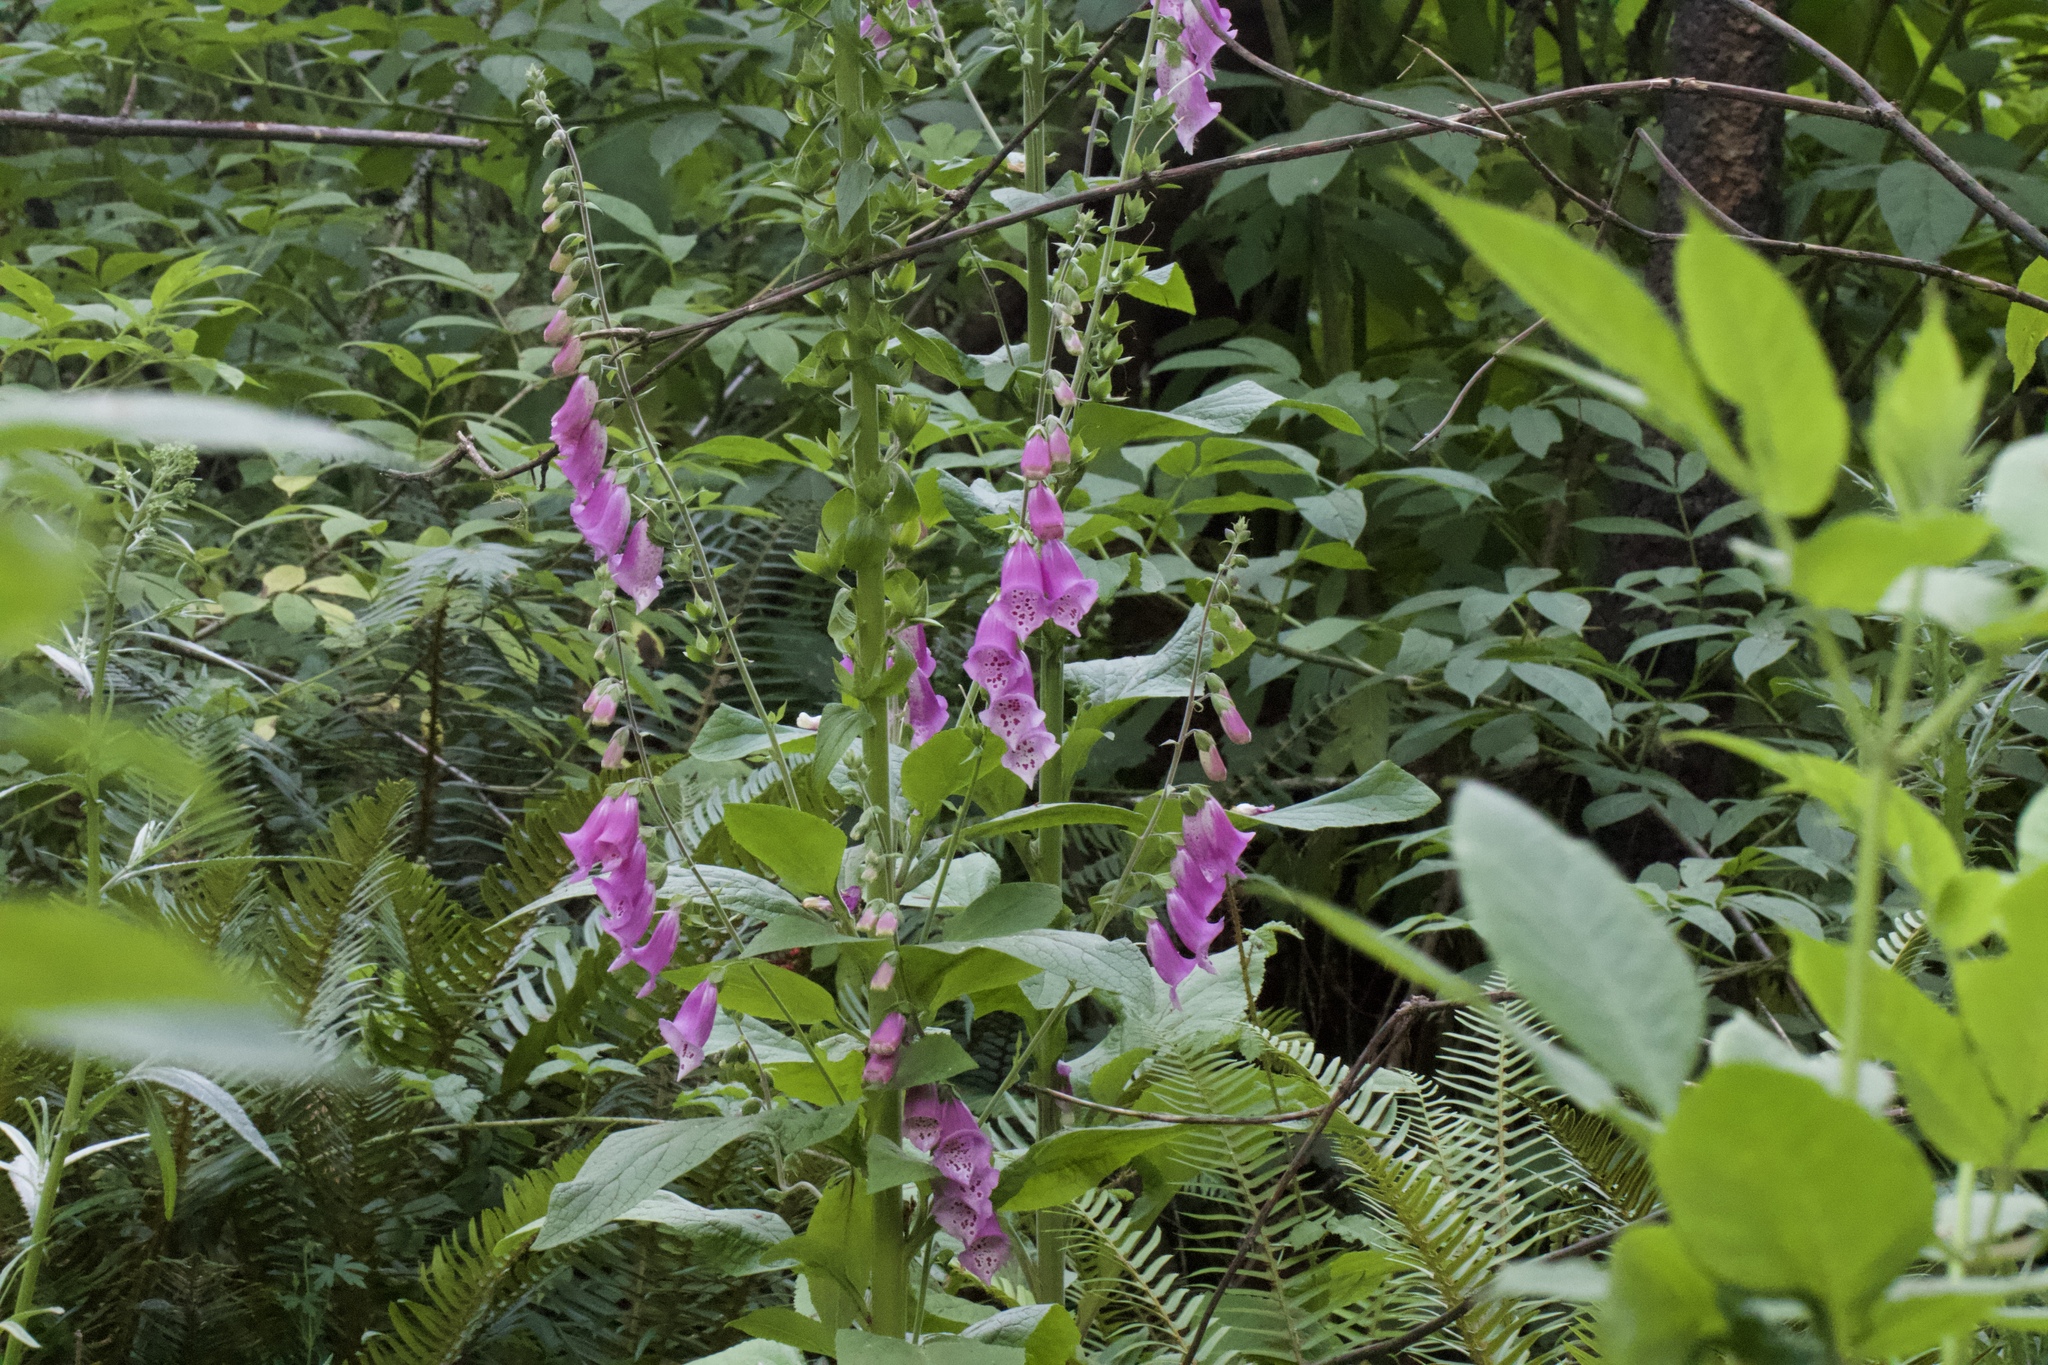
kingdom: Plantae
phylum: Tracheophyta
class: Magnoliopsida
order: Lamiales
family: Plantaginaceae
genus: Digitalis
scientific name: Digitalis purpurea
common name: Foxglove
